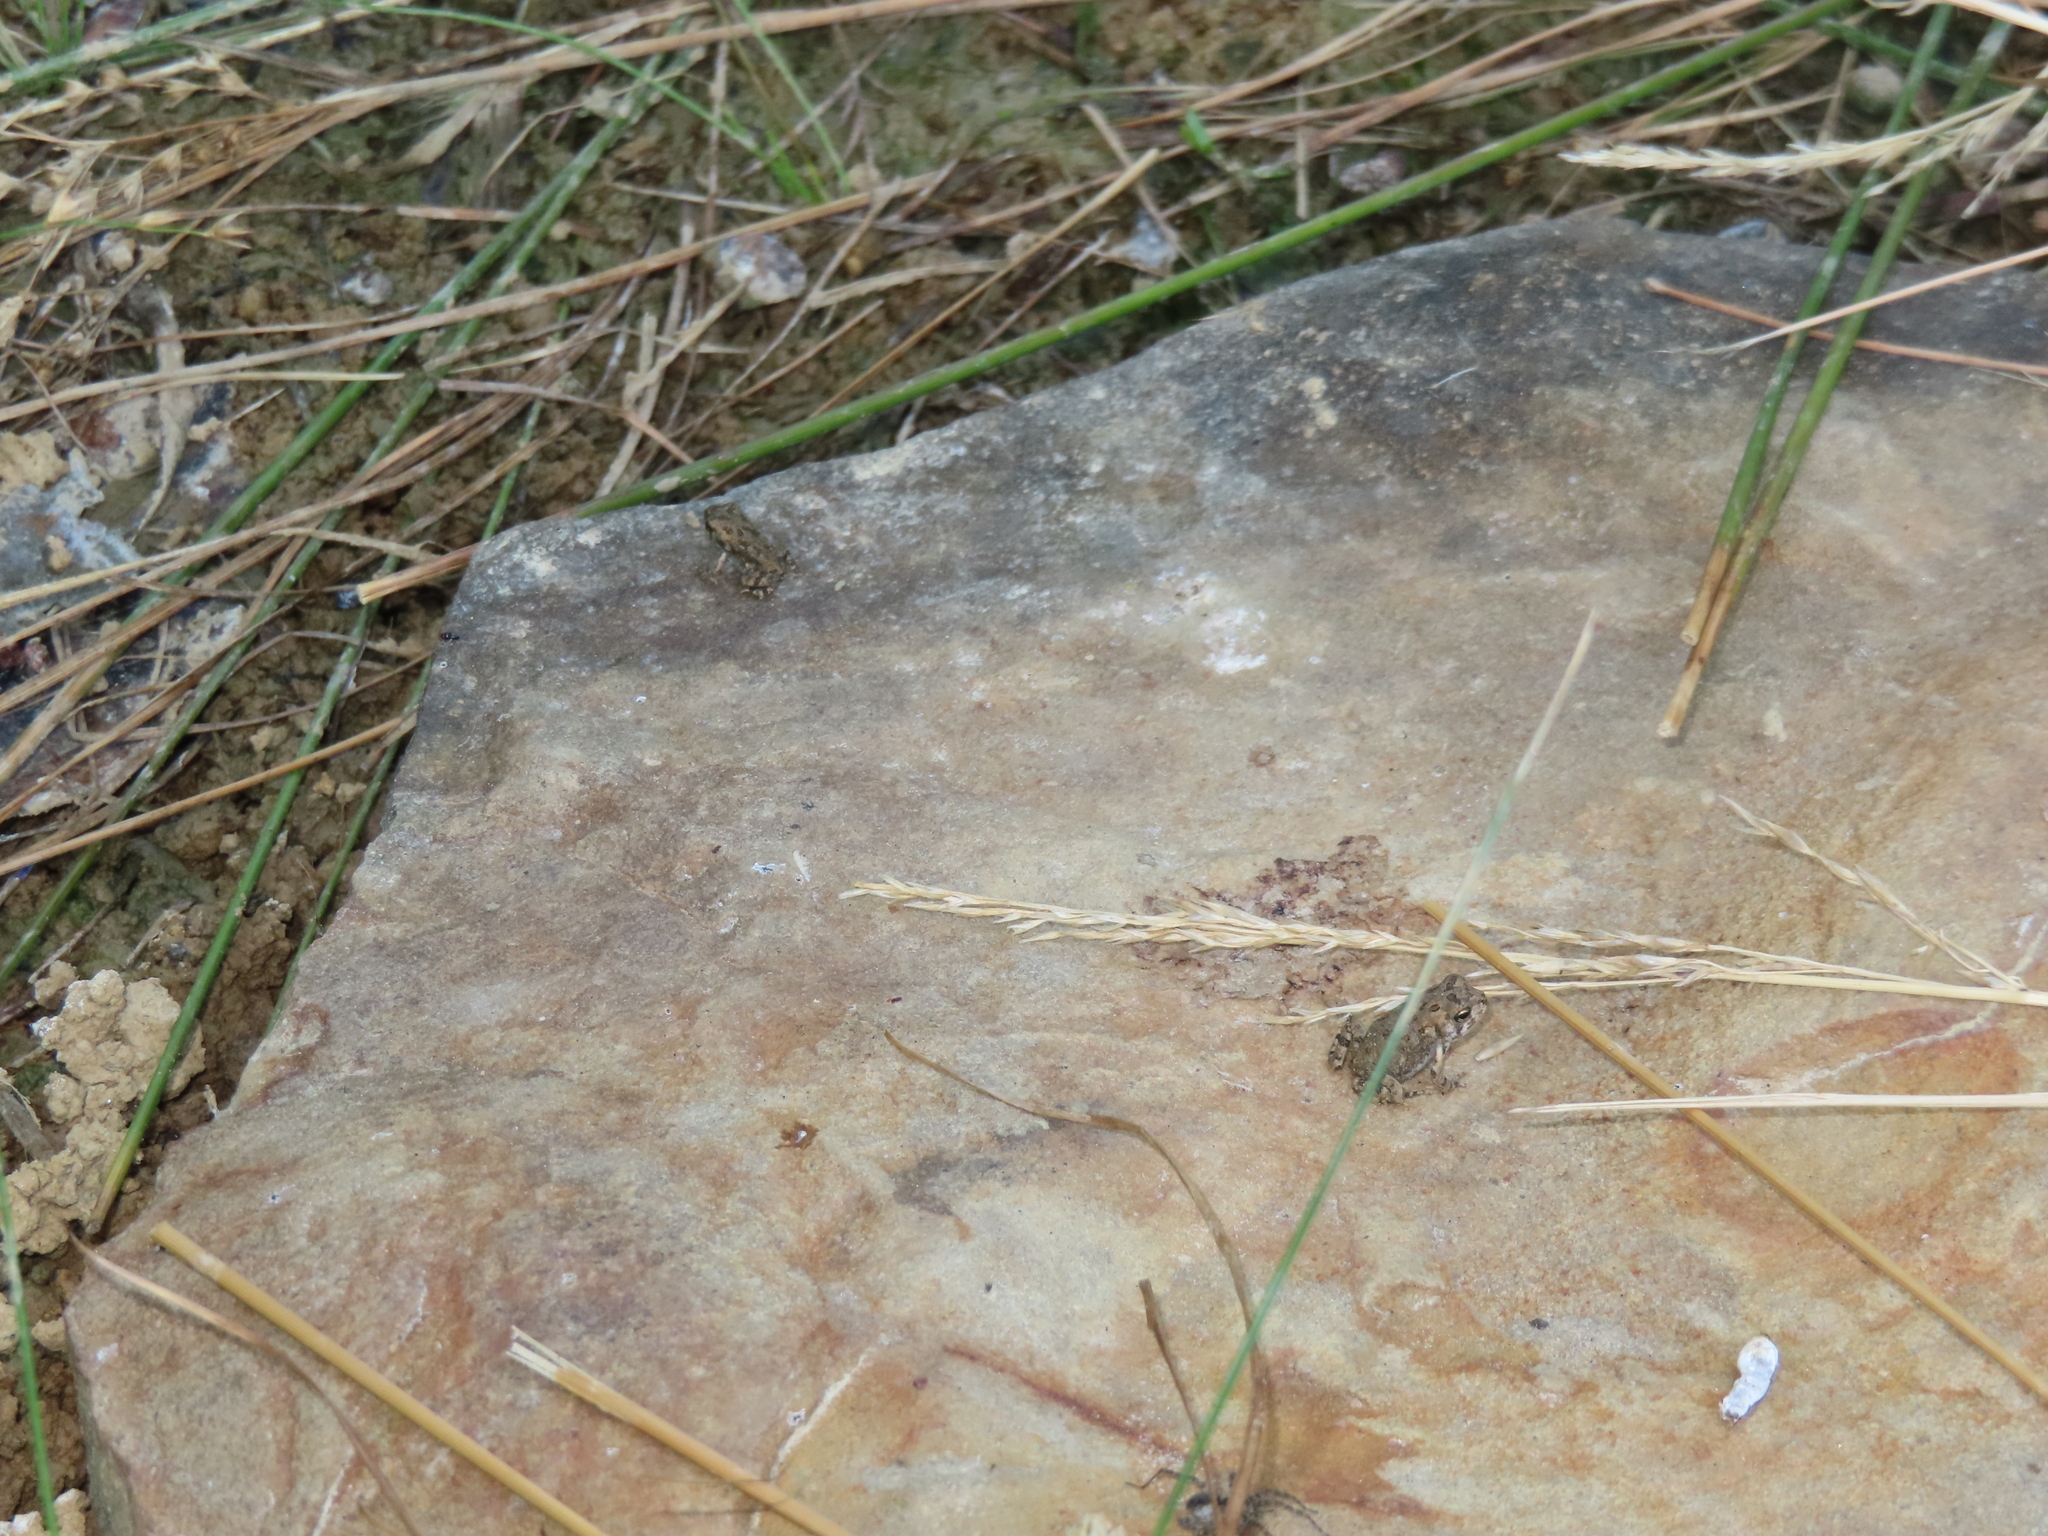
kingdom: Animalia
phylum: Chordata
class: Amphibia
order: Anura
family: Bufonidae
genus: Anaxyrus
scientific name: Anaxyrus fowleri
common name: Fowler's toad
